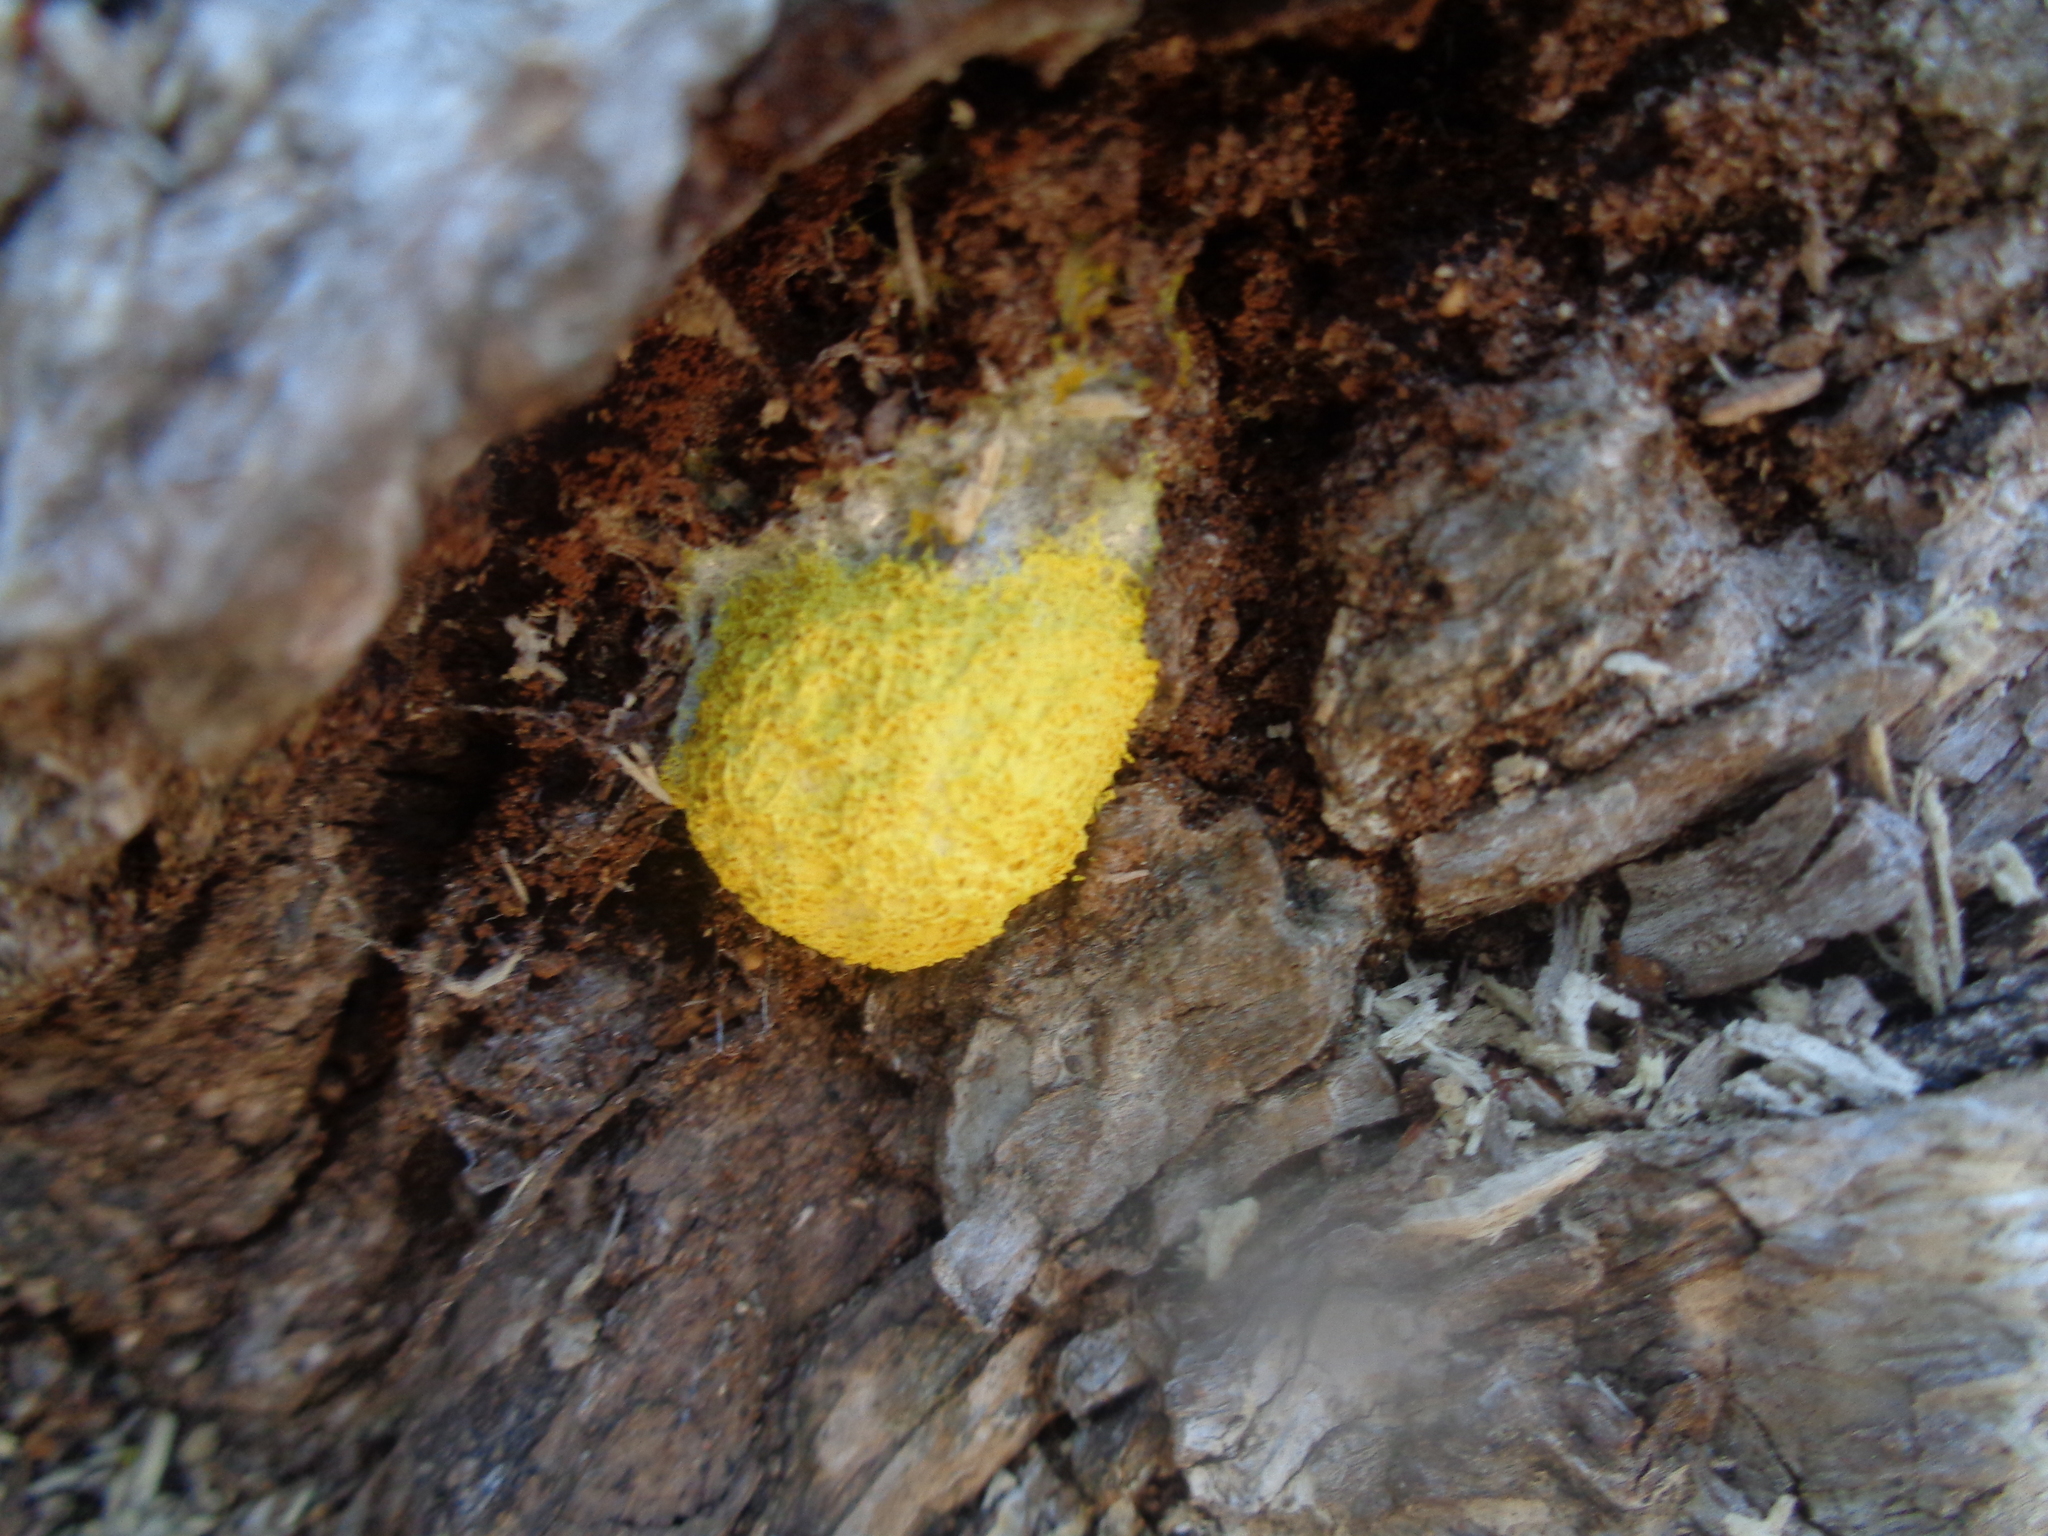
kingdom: Protozoa
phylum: Mycetozoa
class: Myxomycetes
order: Physarales
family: Physaraceae
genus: Fuligo
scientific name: Fuligo septica
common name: Dog vomit slime mold
